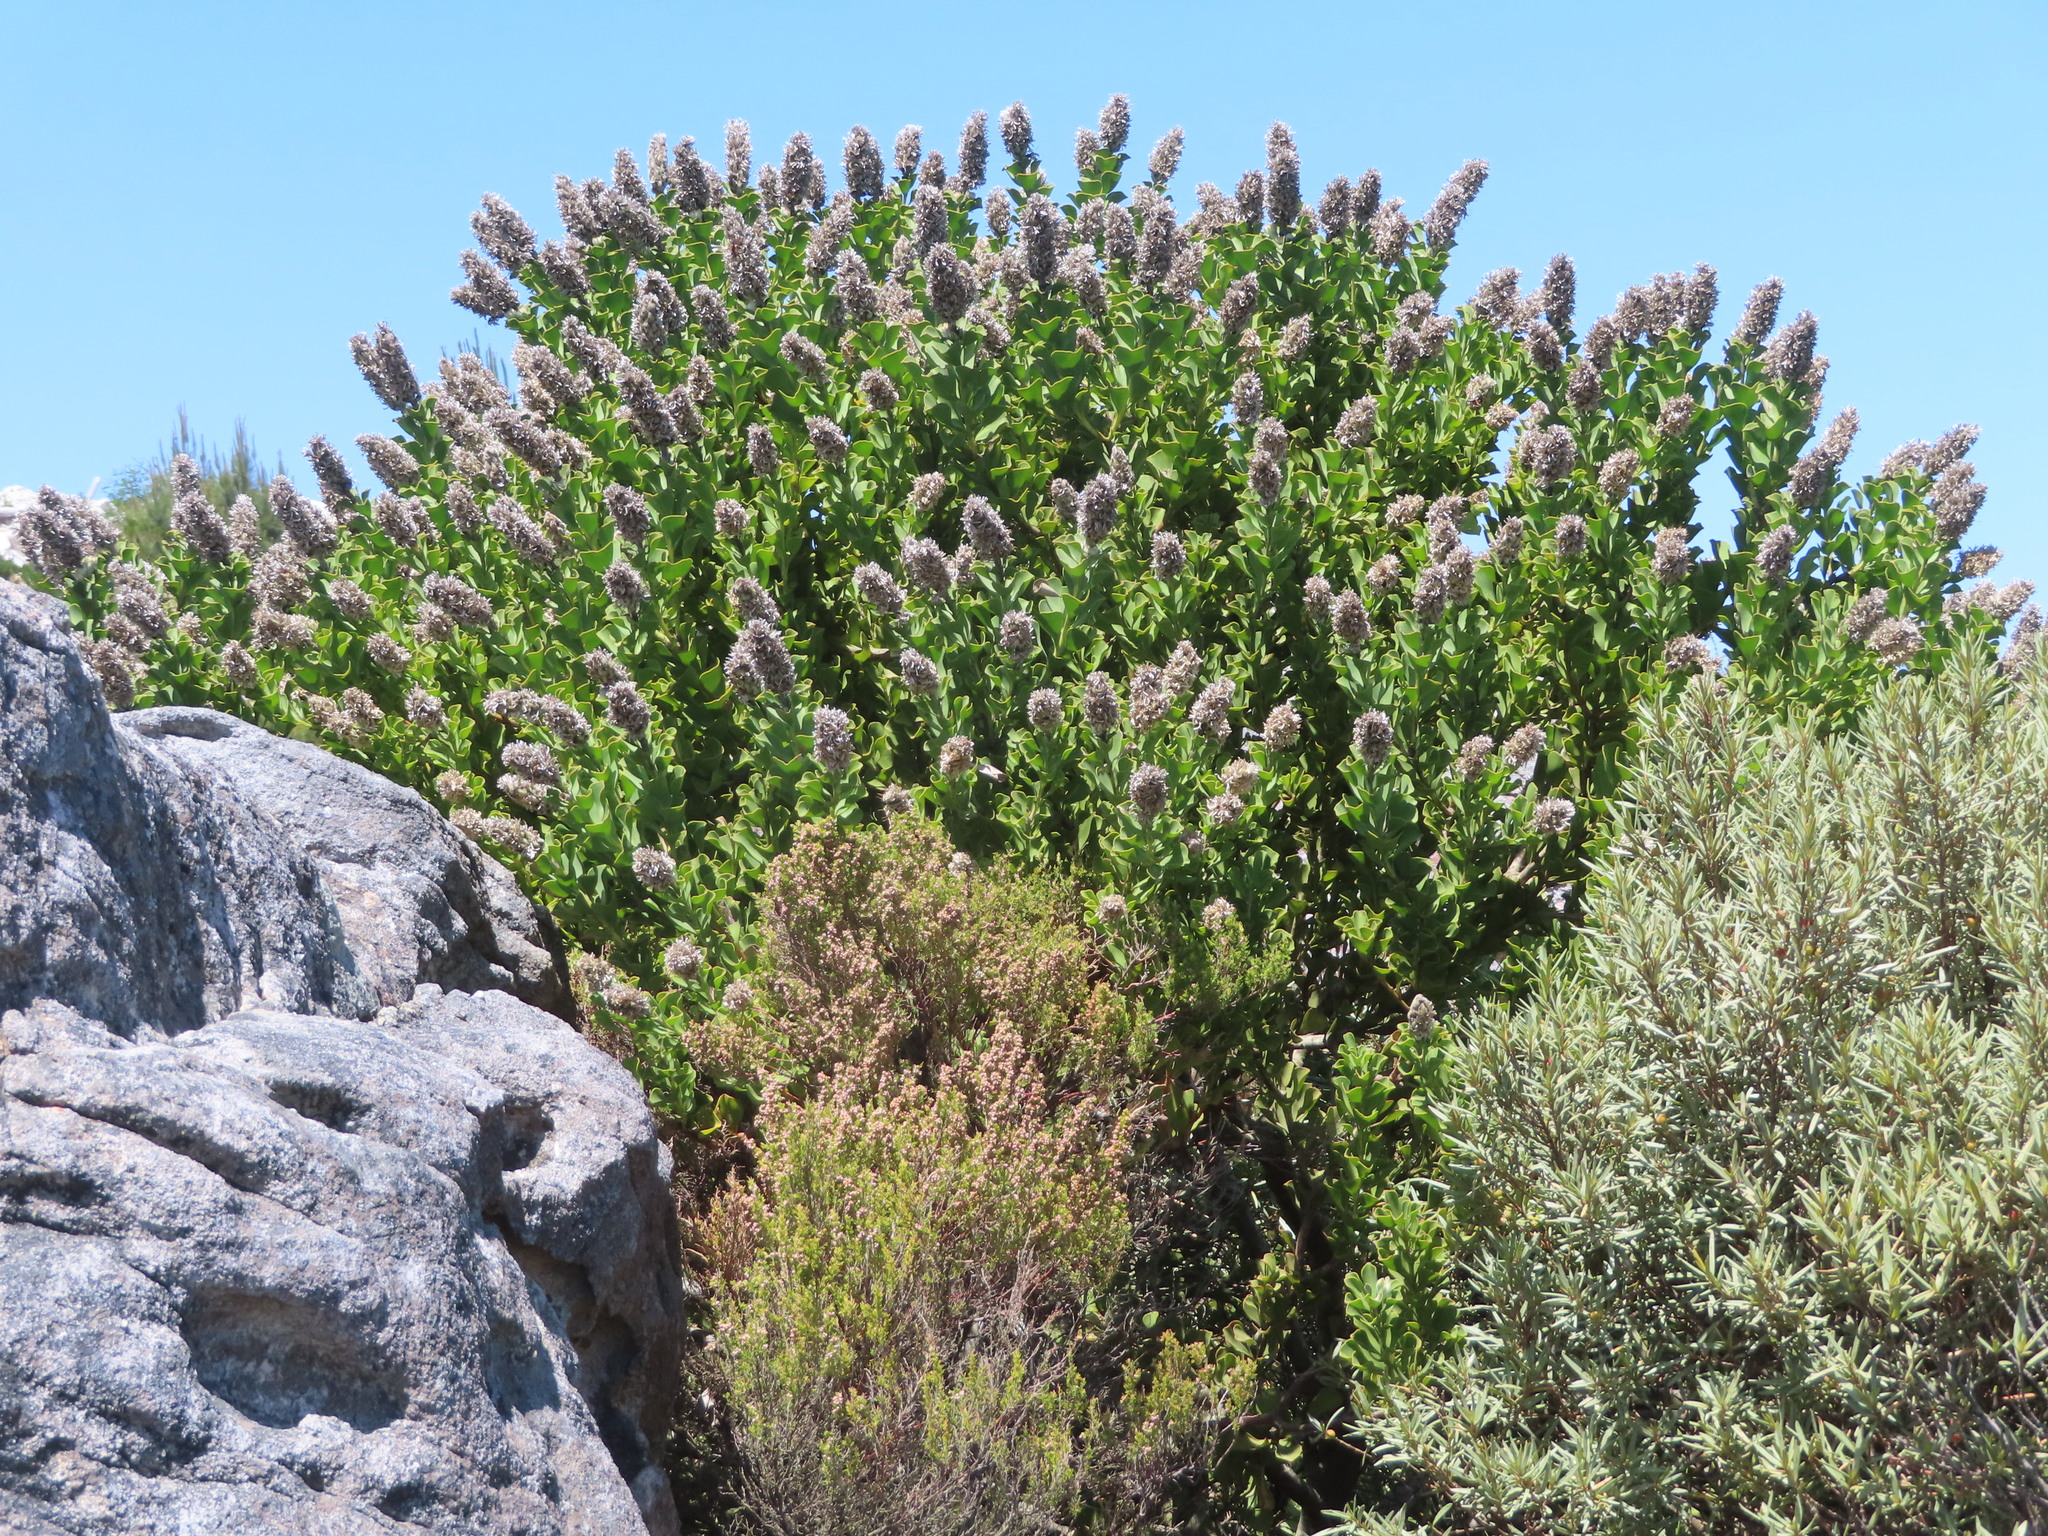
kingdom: Plantae
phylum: Tracheophyta
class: Magnoliopsida
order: Proteales
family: Proteaceae
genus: Paranomus
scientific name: Paranomus sceptrum-gustavianus
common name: King gustav's sceptre
